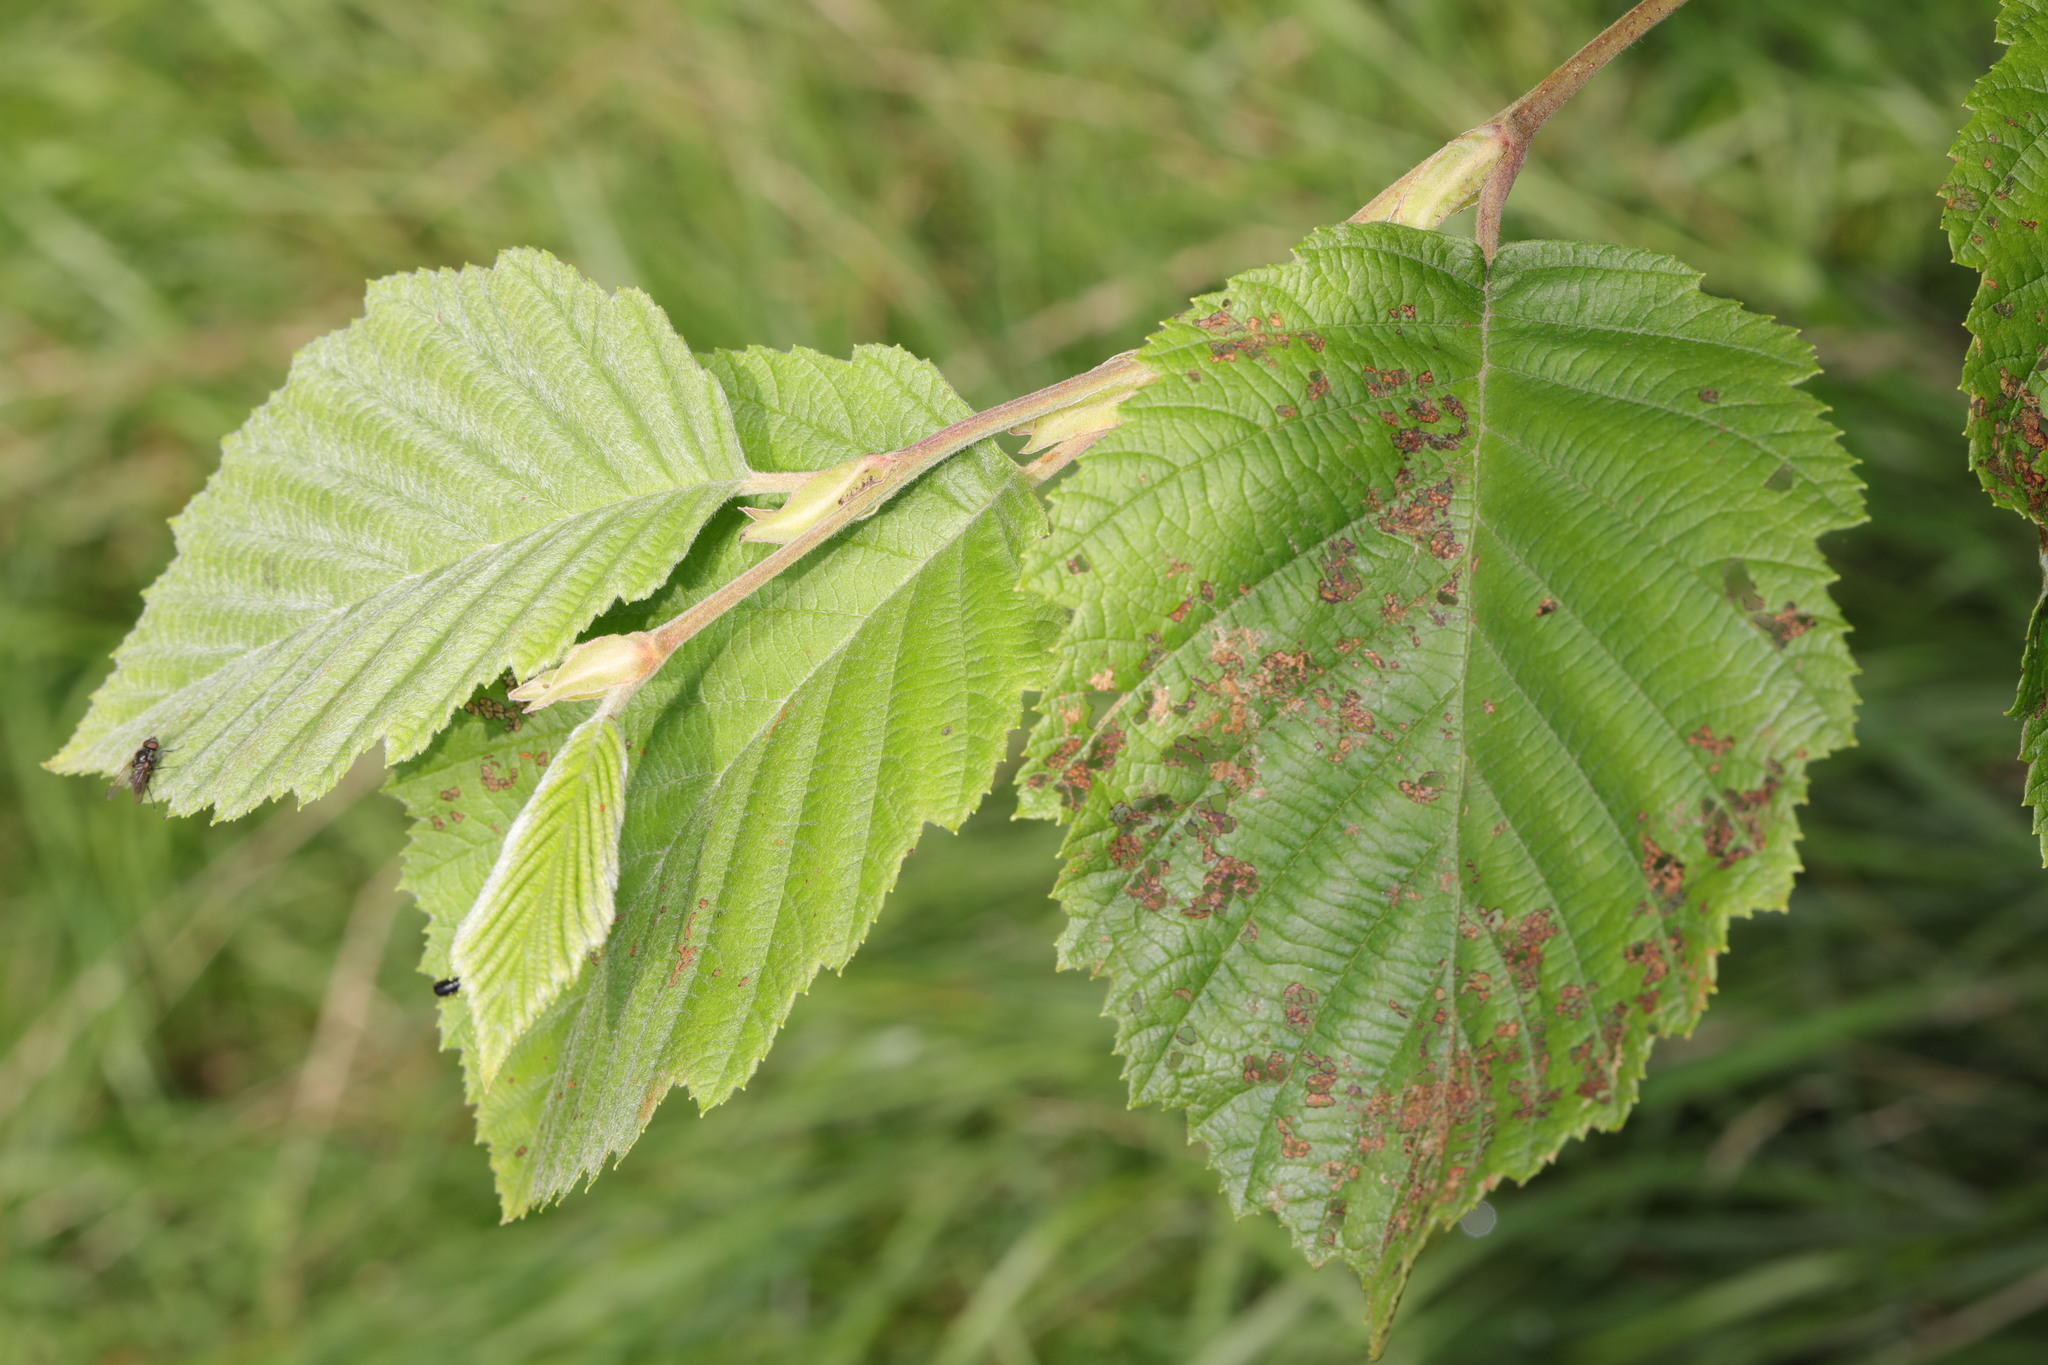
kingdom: Plantae
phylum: Tracheophyta
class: Magnoliopsida
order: Fagales
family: Betulaceae
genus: Alnus
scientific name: Alnus incana
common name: Grey alder
